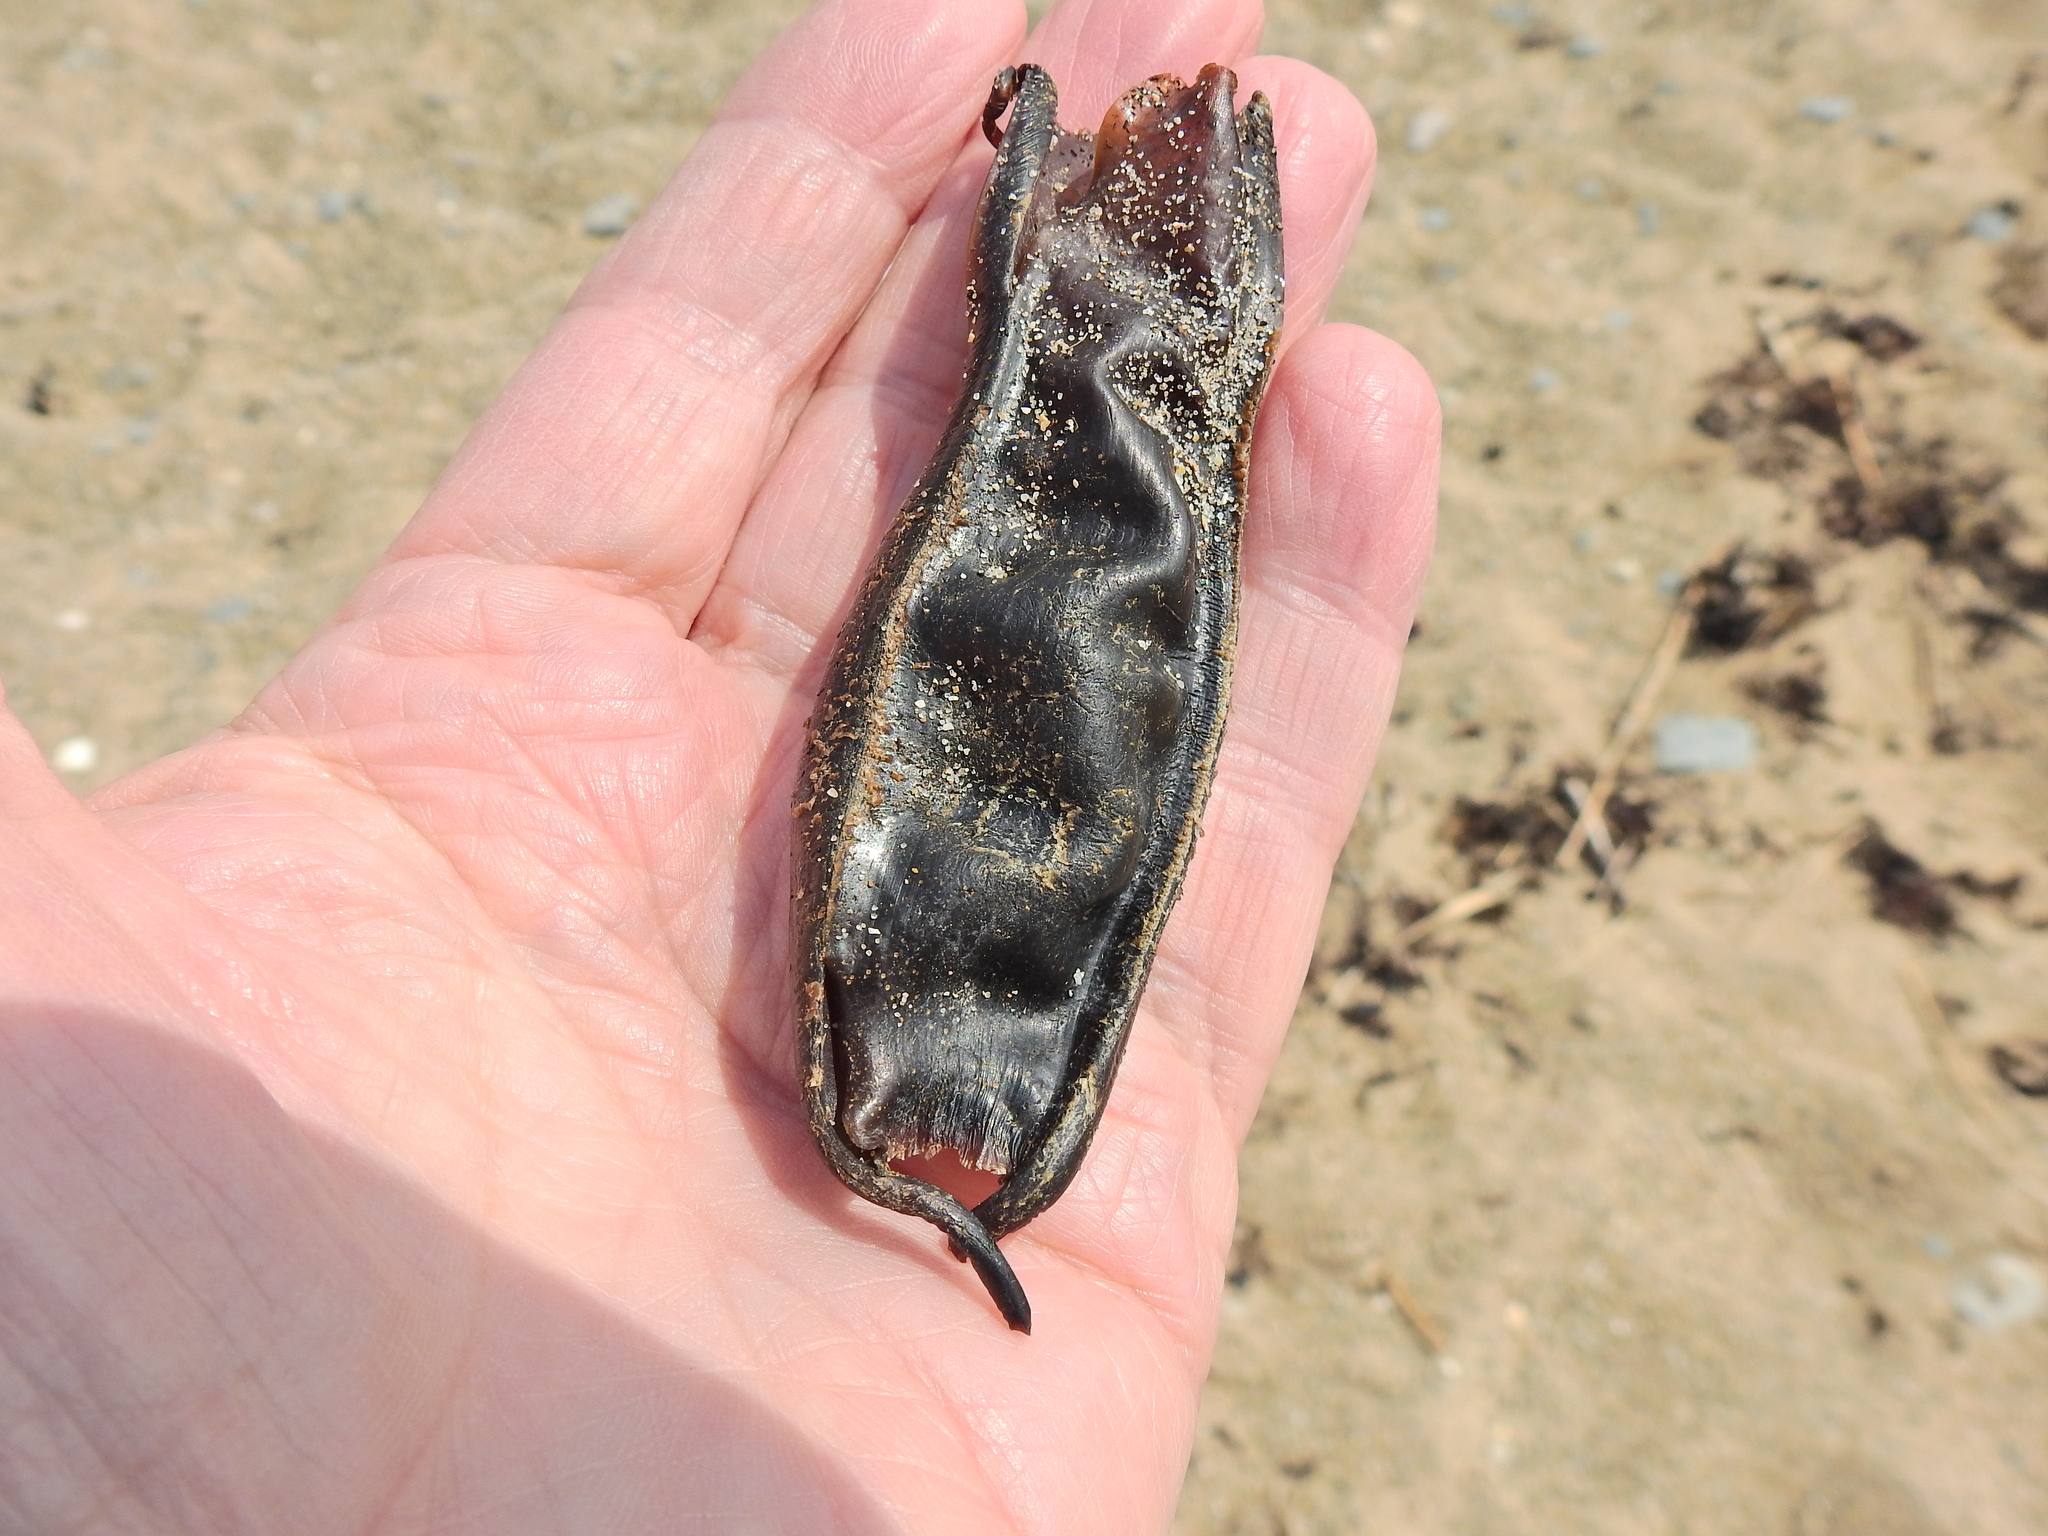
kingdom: Animalia
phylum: Chordata
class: Elasmobranchii
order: Carcharhiniformes
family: Scyliorhinidae
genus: Scyliorhinus
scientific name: Scyliorhinus stellaris
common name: Nursehound
